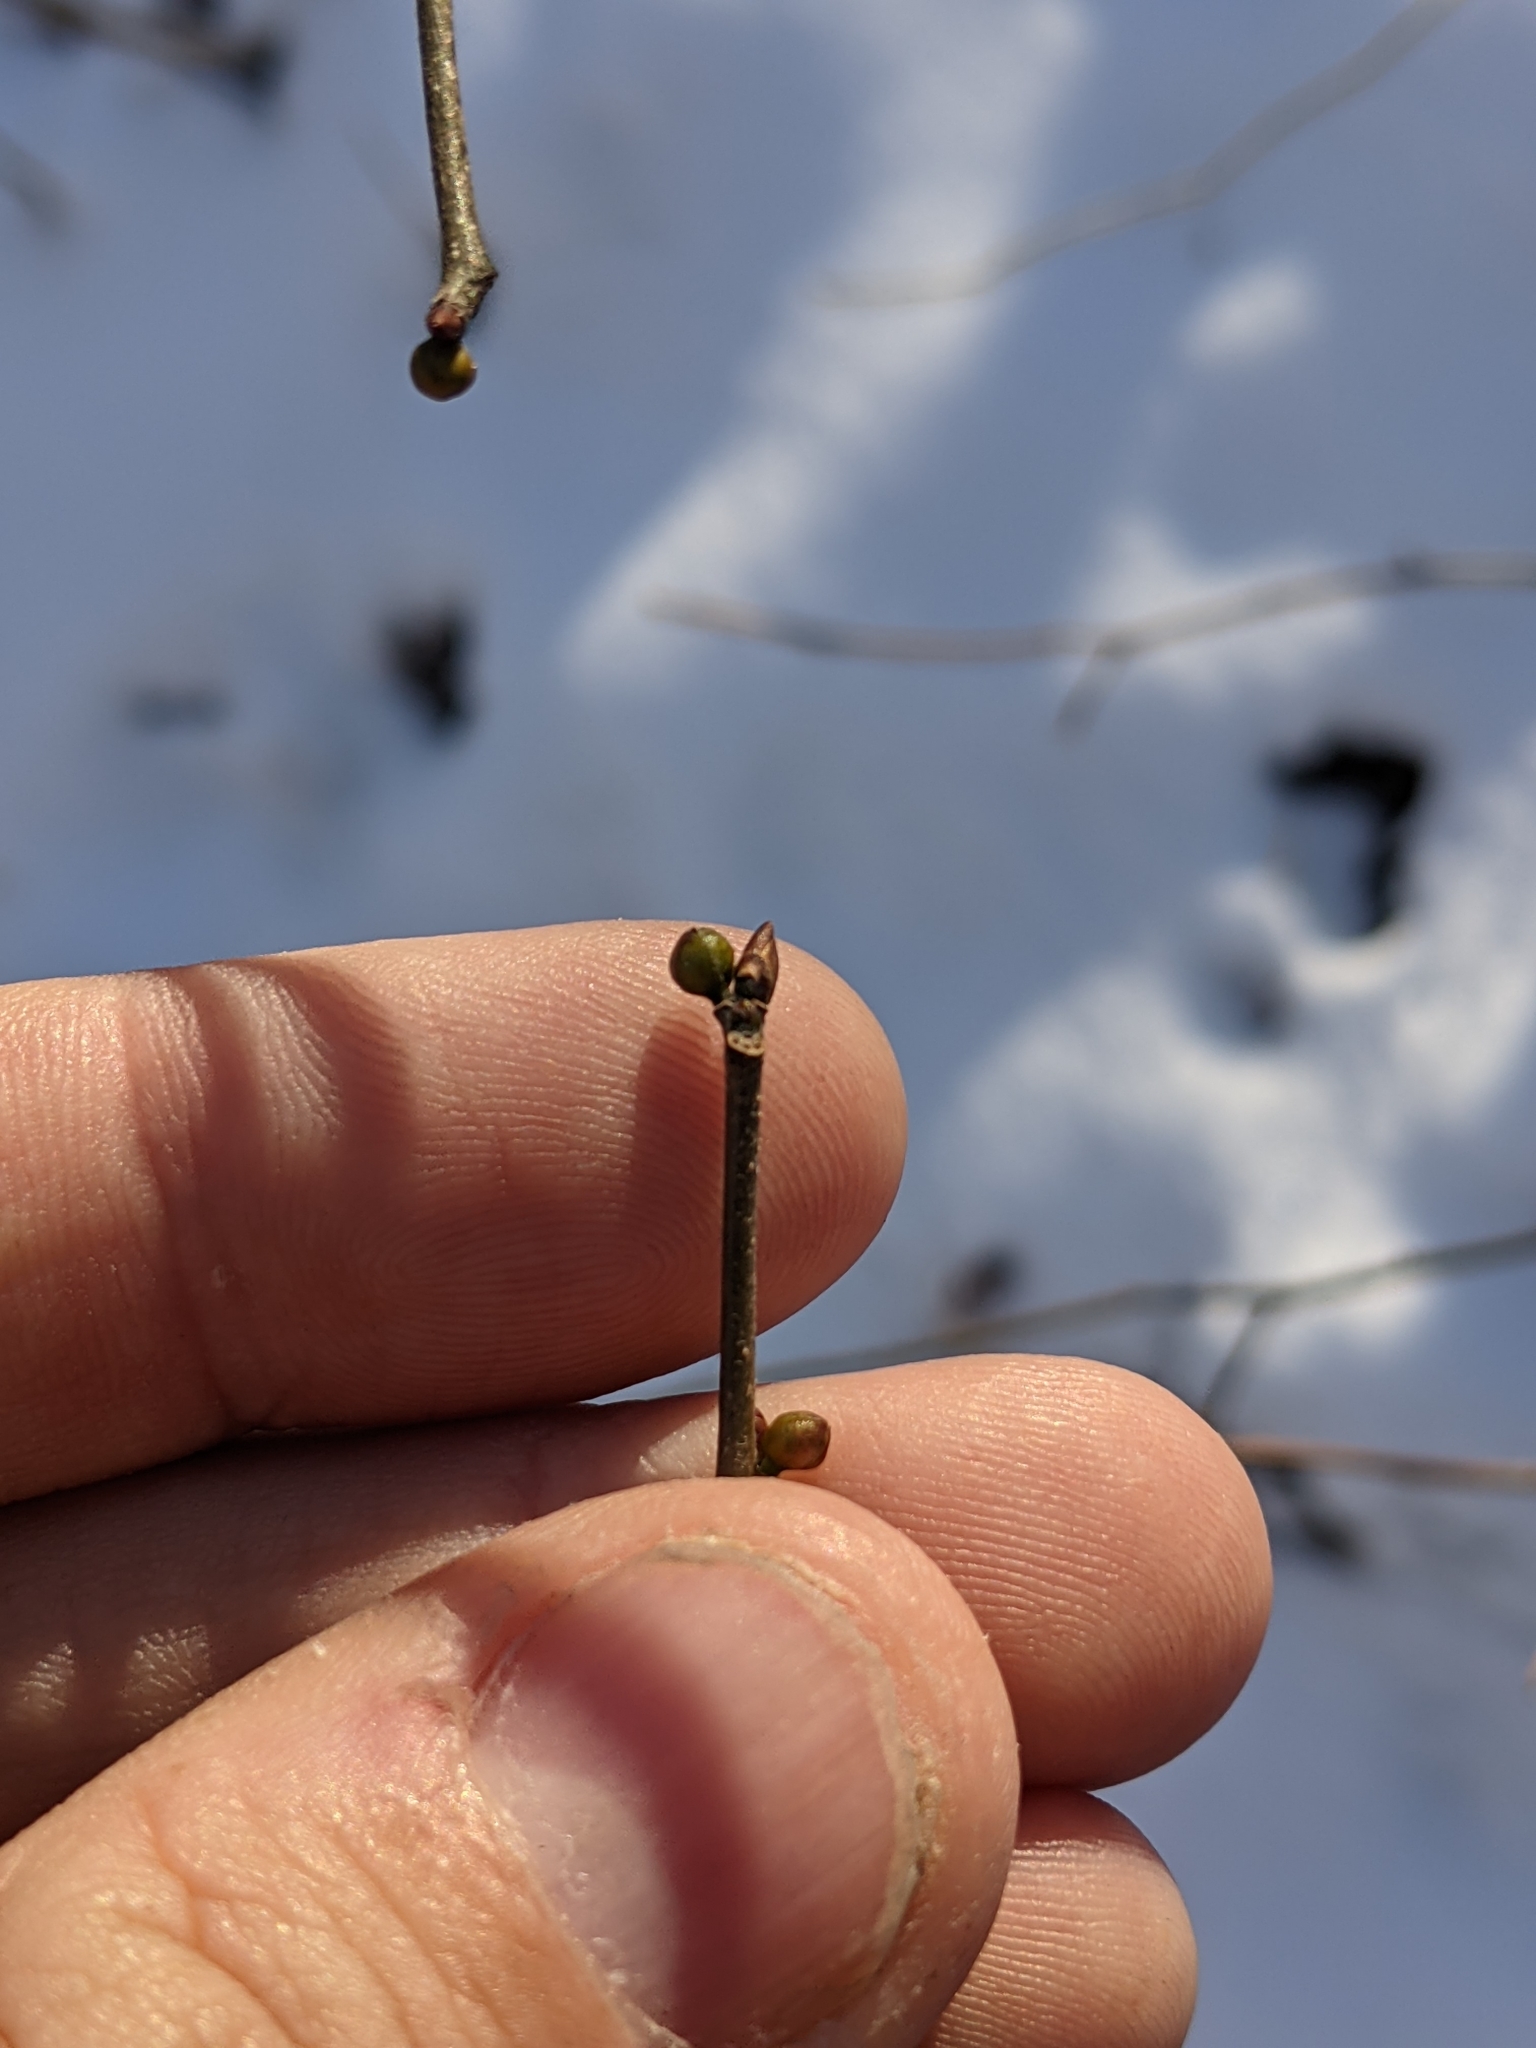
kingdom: Plantae
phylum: Tracheophyta
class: Magnoliopsida
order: Laurales
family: Lauraceae
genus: Lindera
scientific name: Lindera benzoin
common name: Spicebush
